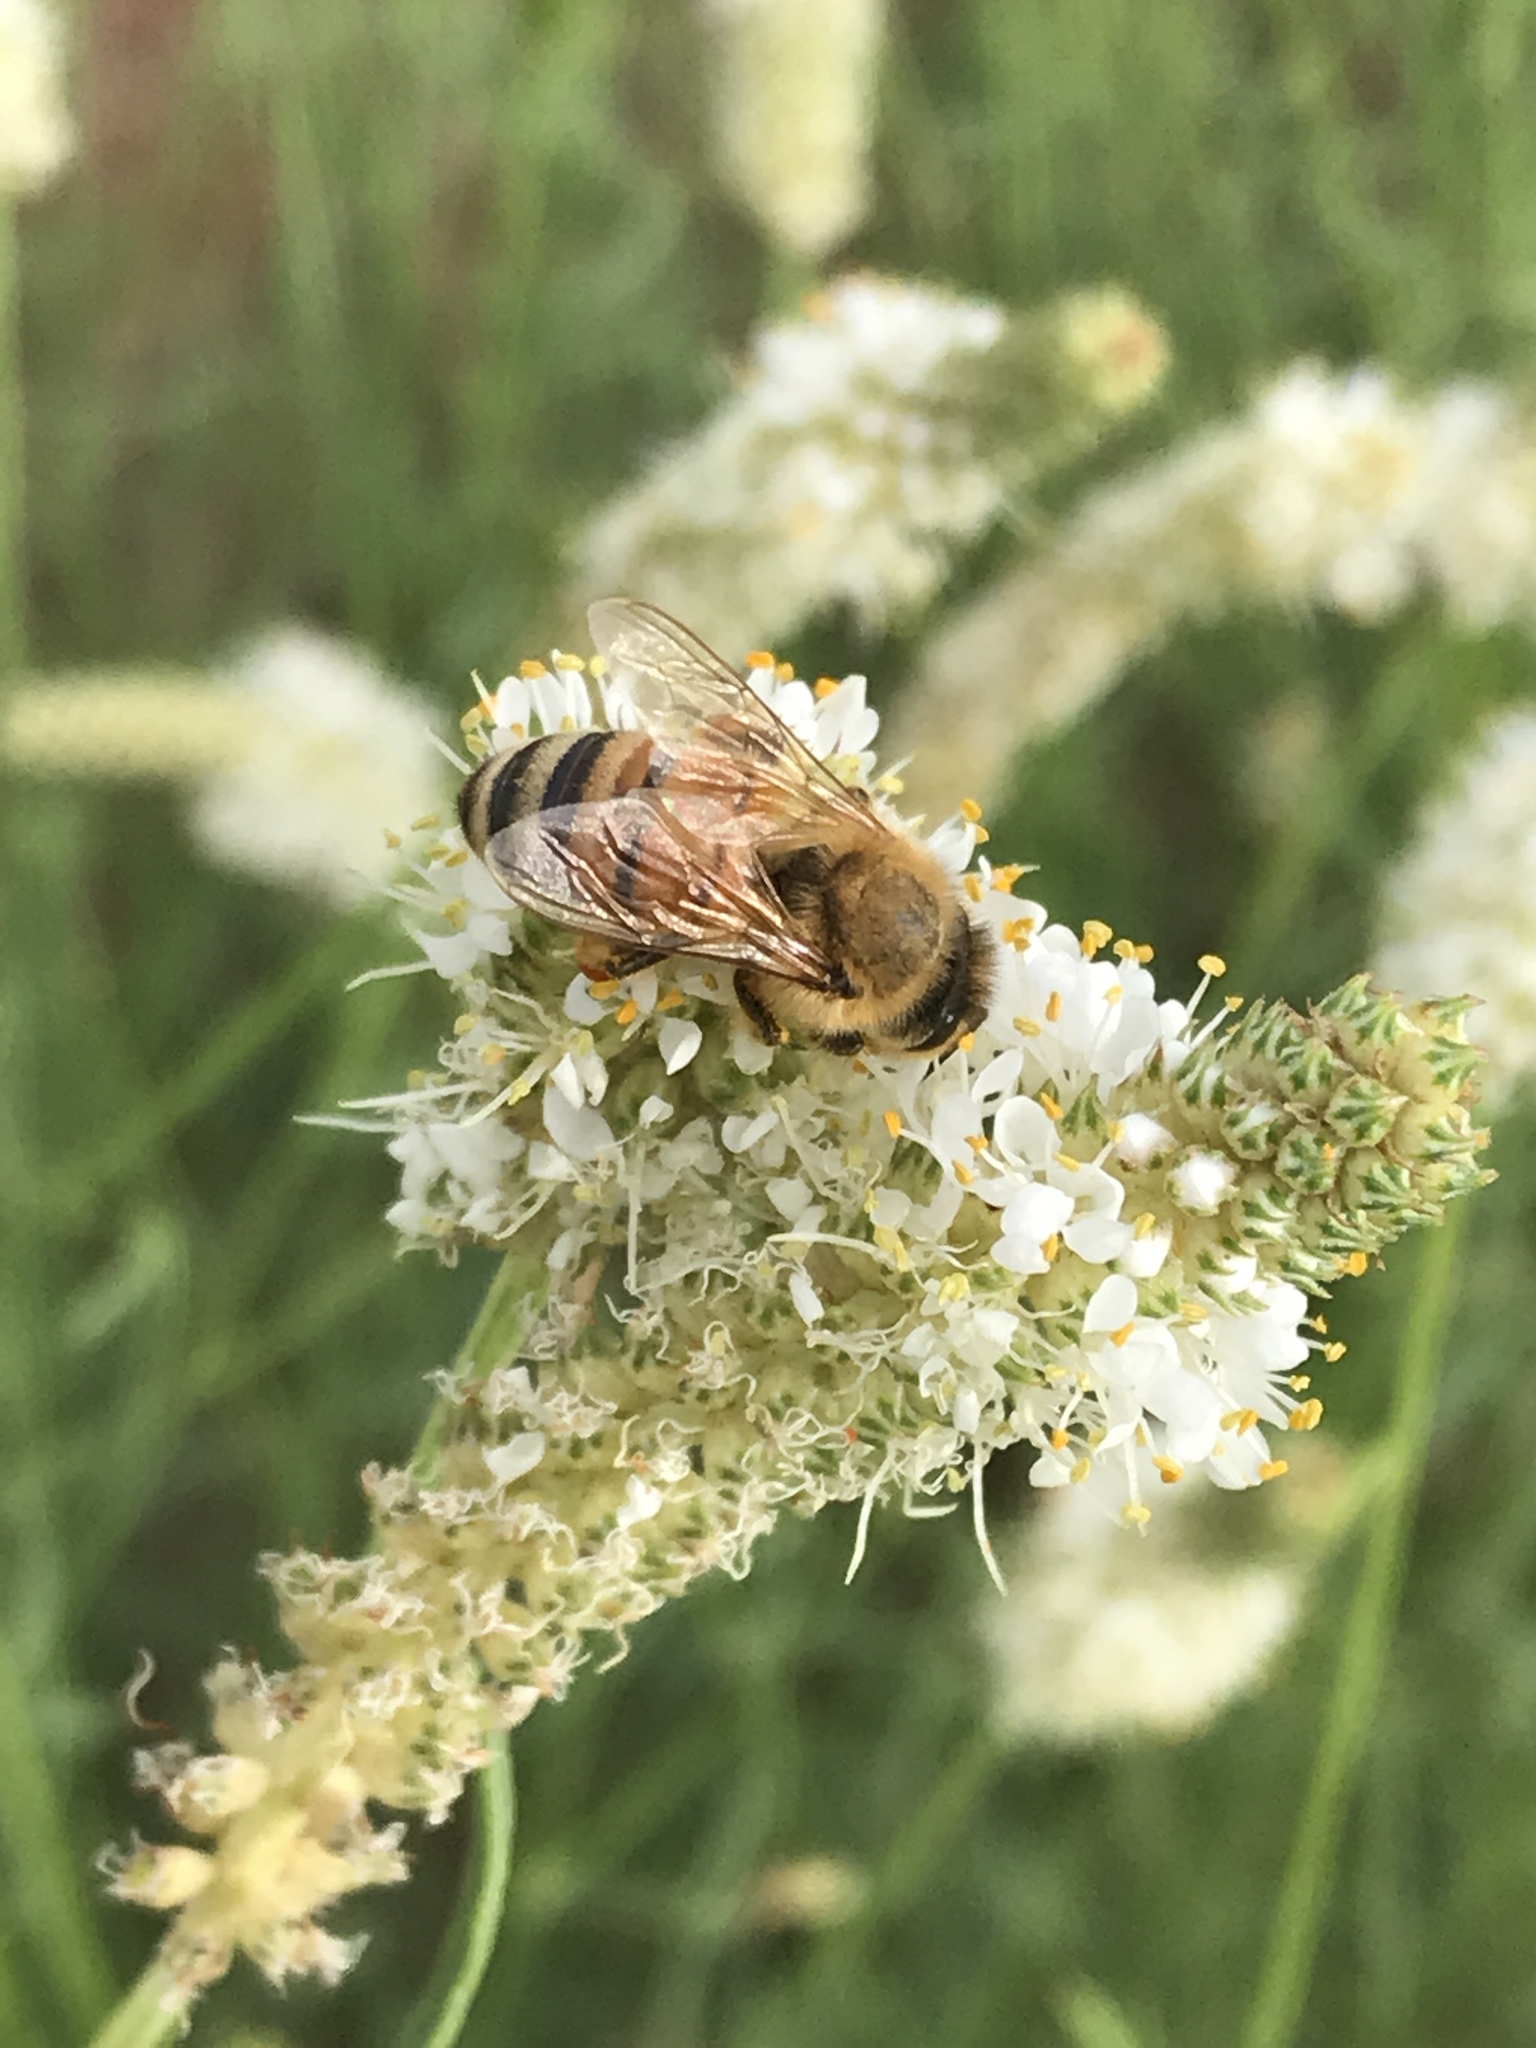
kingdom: Animalia
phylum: Arthropoda
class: Insecta
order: Hymenoptera
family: Apidae
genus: Apis
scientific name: Apis mellifera
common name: Honey bee
